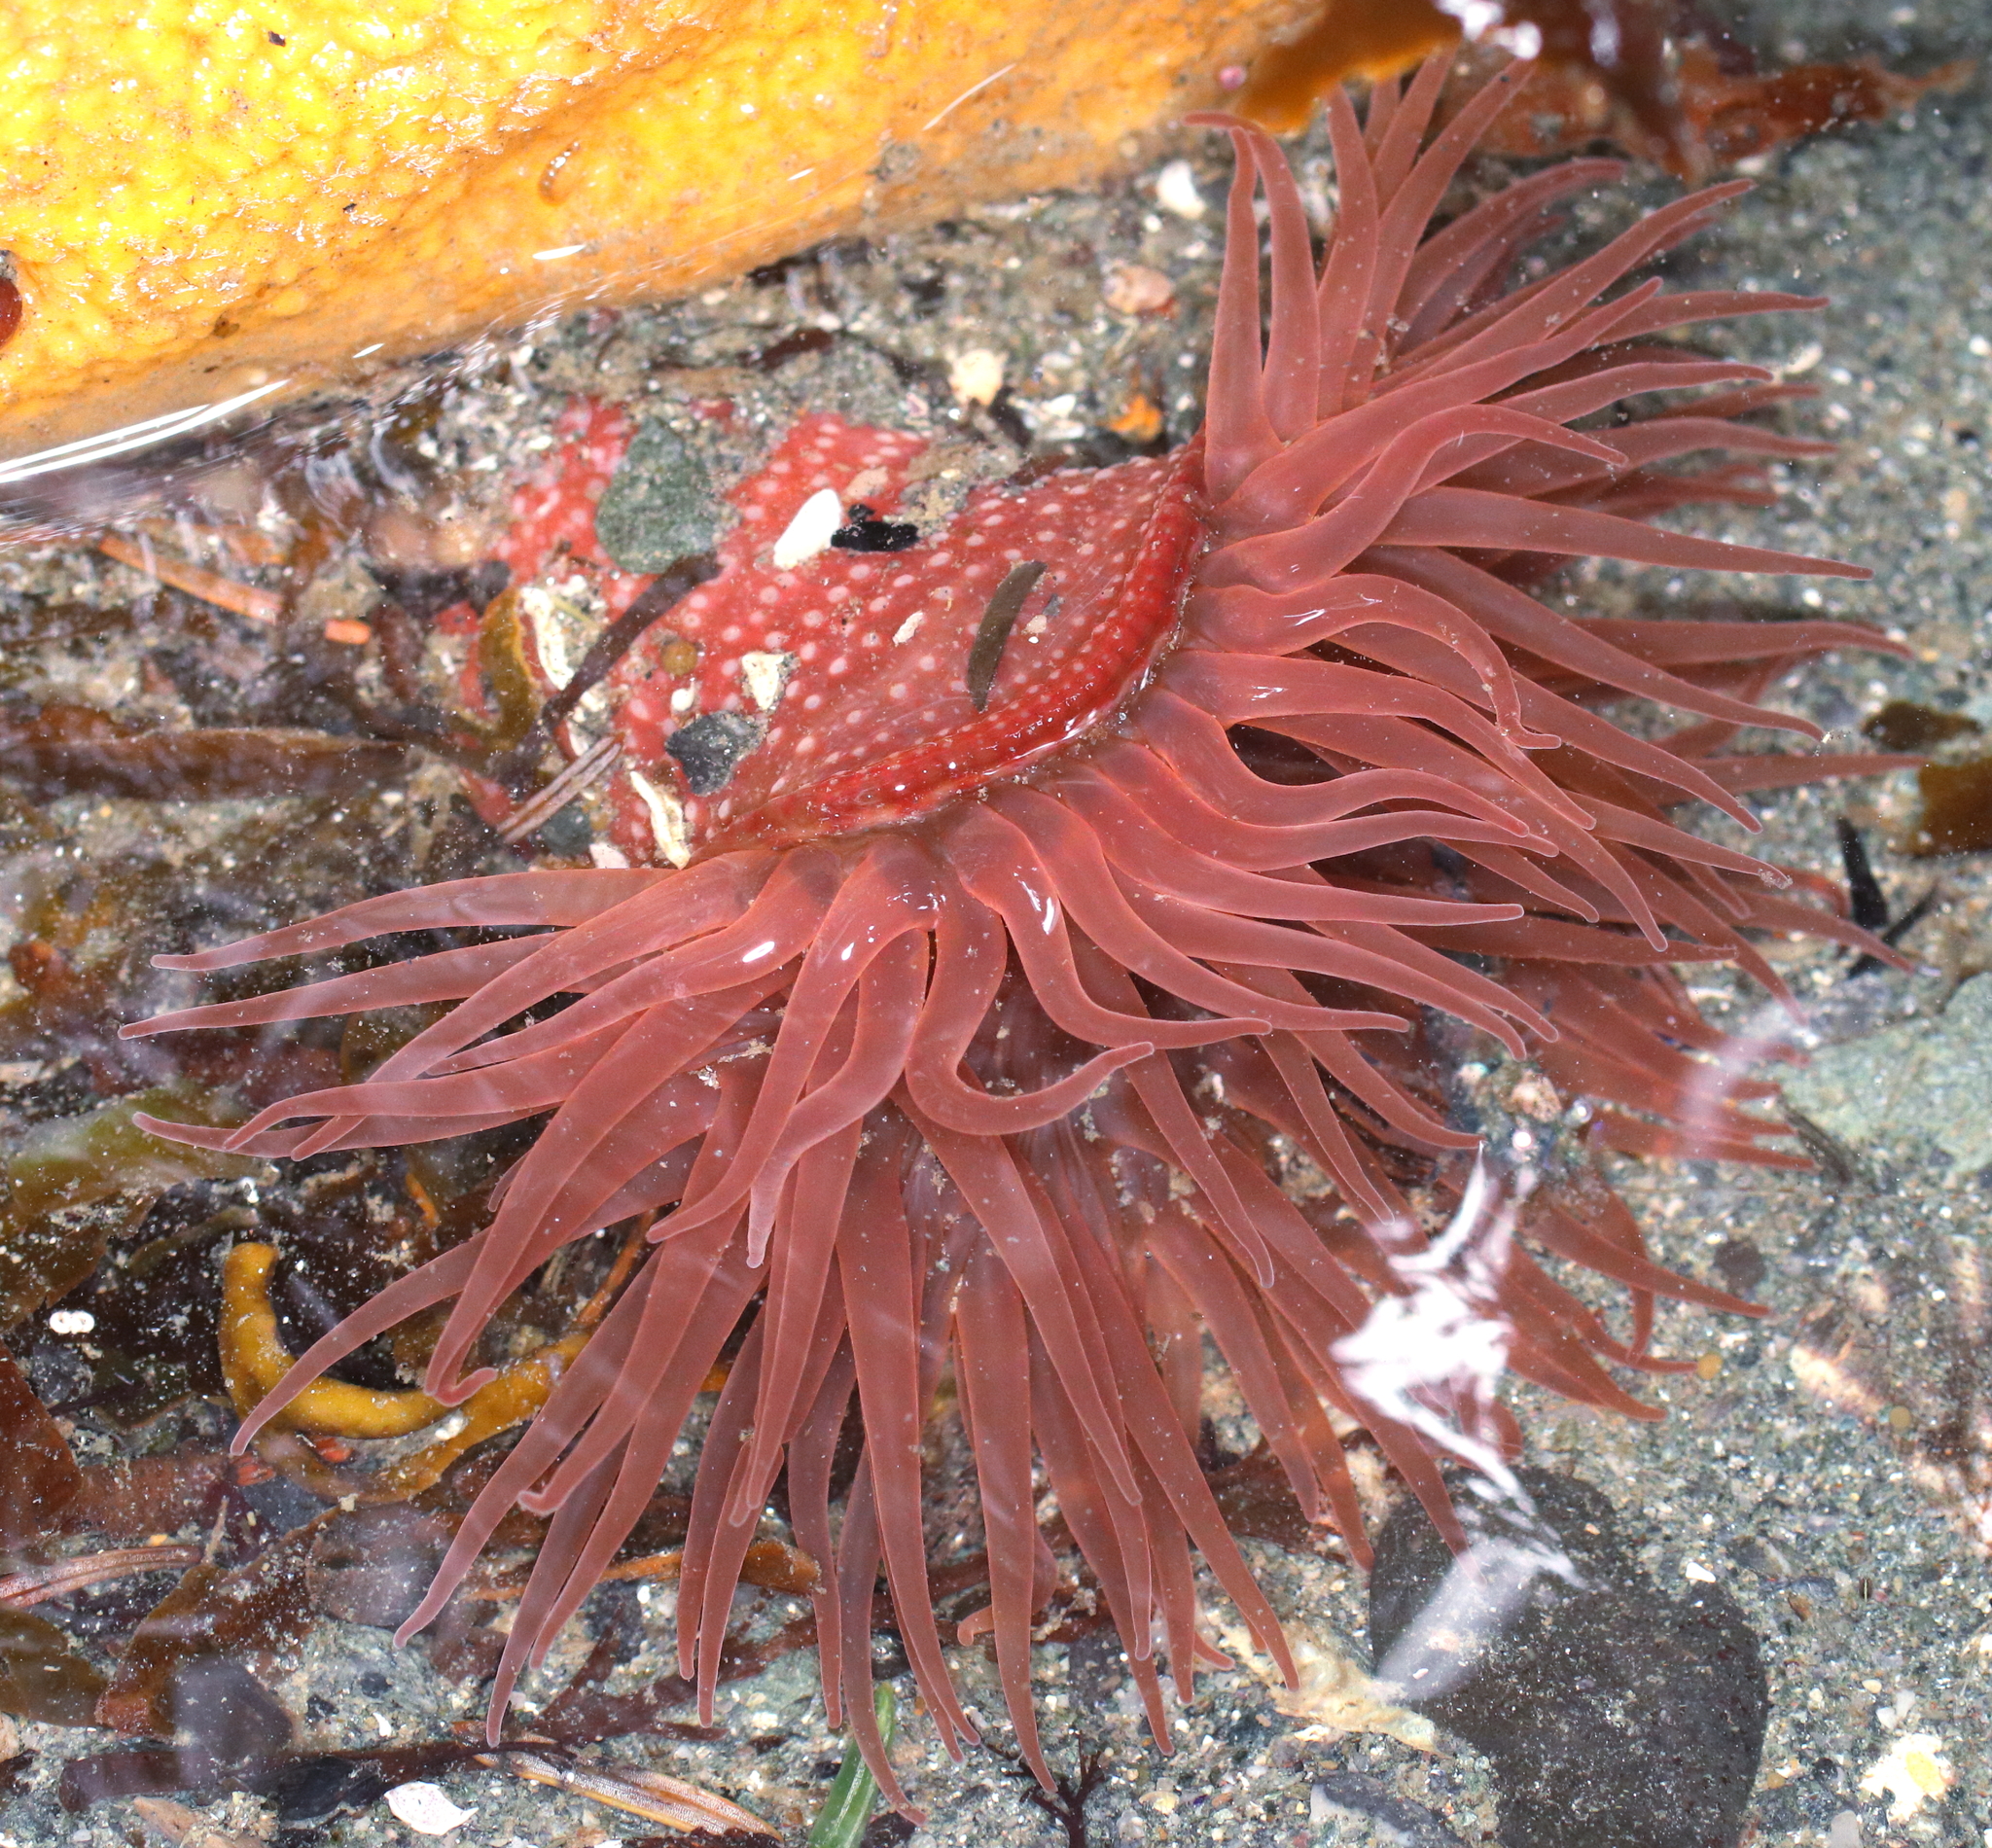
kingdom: Animalia
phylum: Cnidaria
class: Anthozoa
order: Actiniaria
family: Actiniidae
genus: Cribrinopsis
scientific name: Cribrinopsis albopunctata
